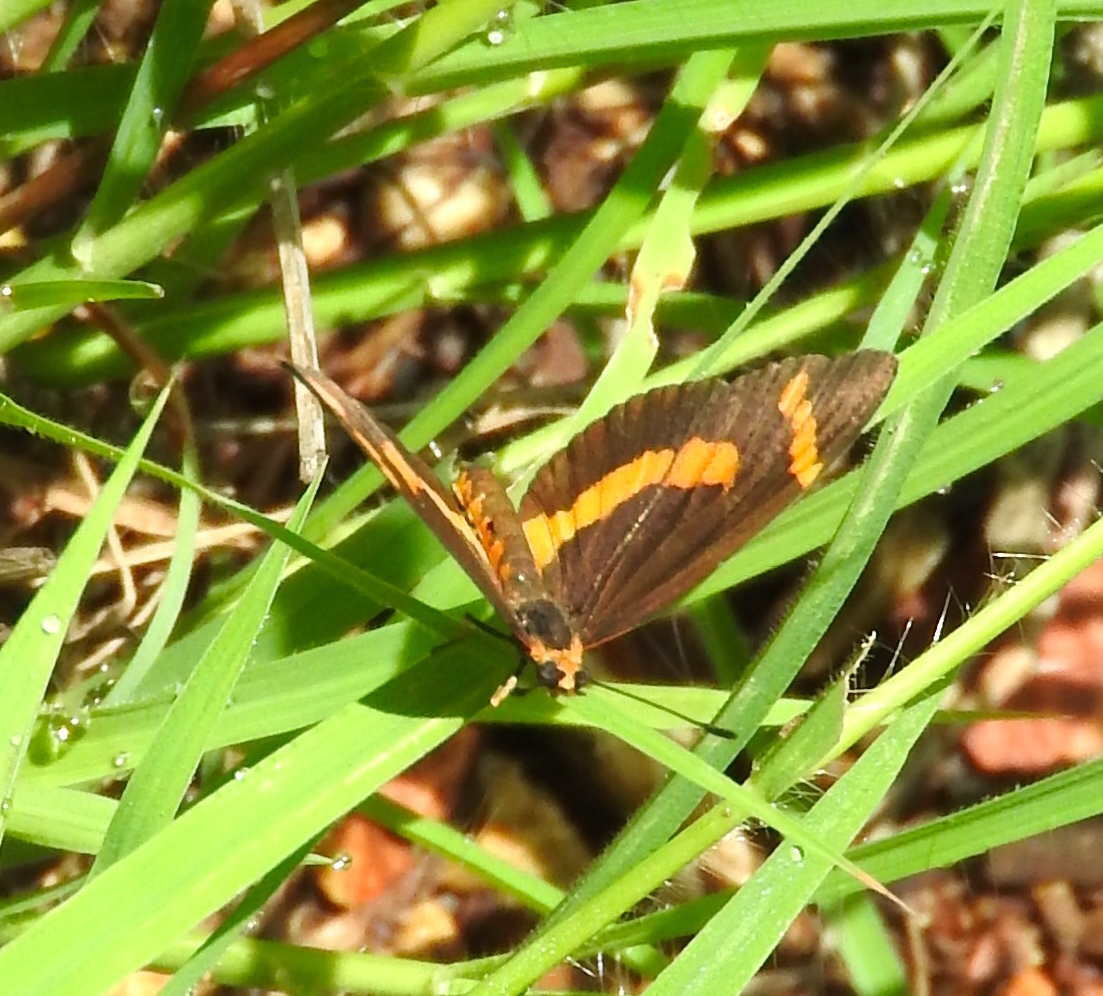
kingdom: Animalia
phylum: Arthropoda
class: Insecta
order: Lepidoptera
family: Nymphalidae
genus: Microtia
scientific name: Microtia elva
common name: Elf
